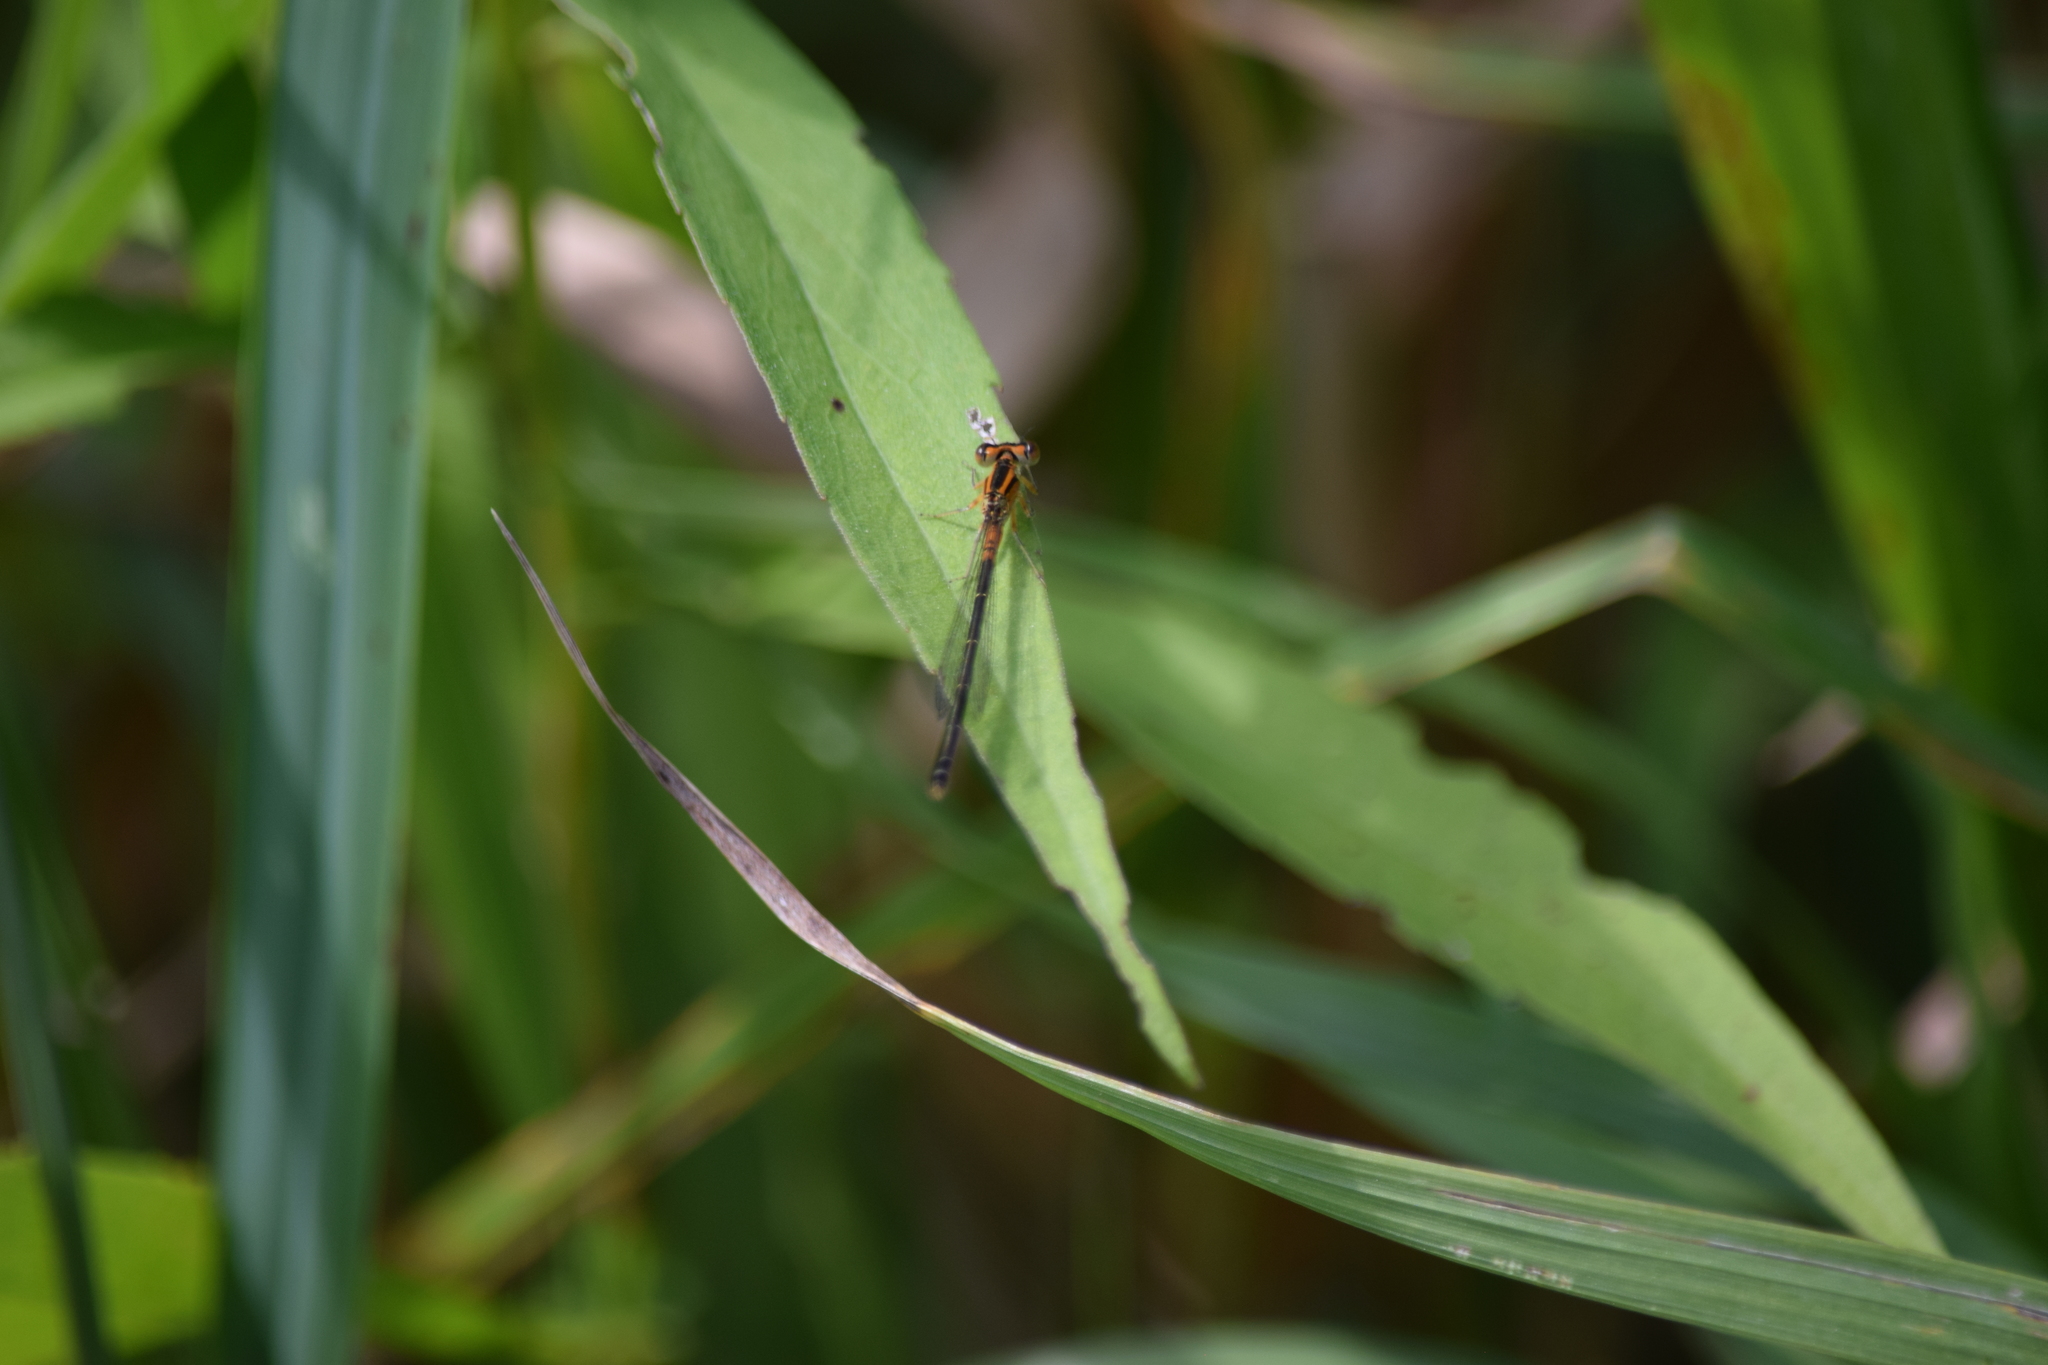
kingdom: Animalia
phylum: Arthropoda
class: Insecta
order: Odonata
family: Coenagrionidae
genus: Ischnura
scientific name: Ischnura verticalis
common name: Eastern forktail
